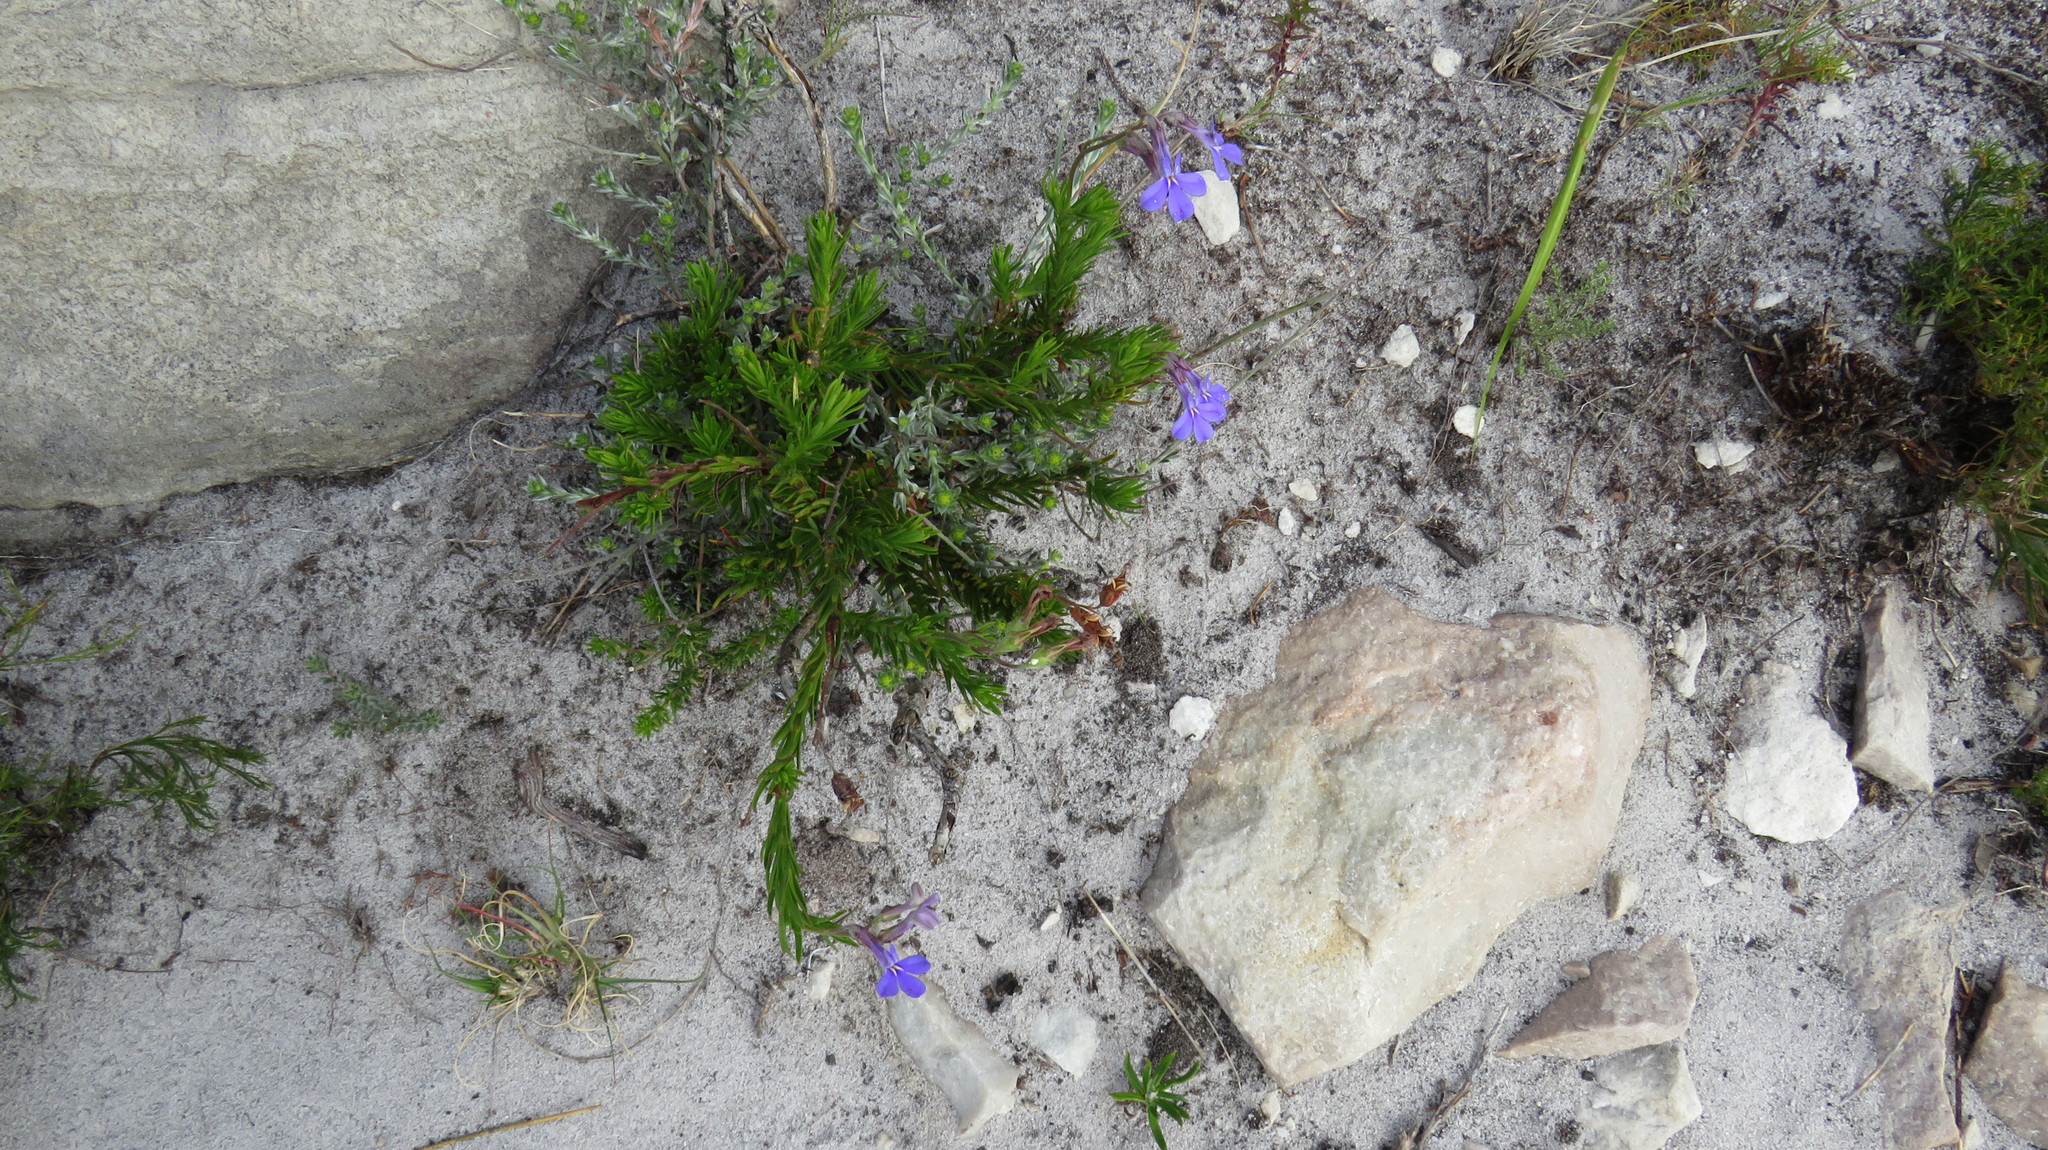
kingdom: Plantae
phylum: Tracheophyta
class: Magnoliopsida
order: Asterales
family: Campanulaceae
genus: Lobelia
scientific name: Lobelia pinifolia
